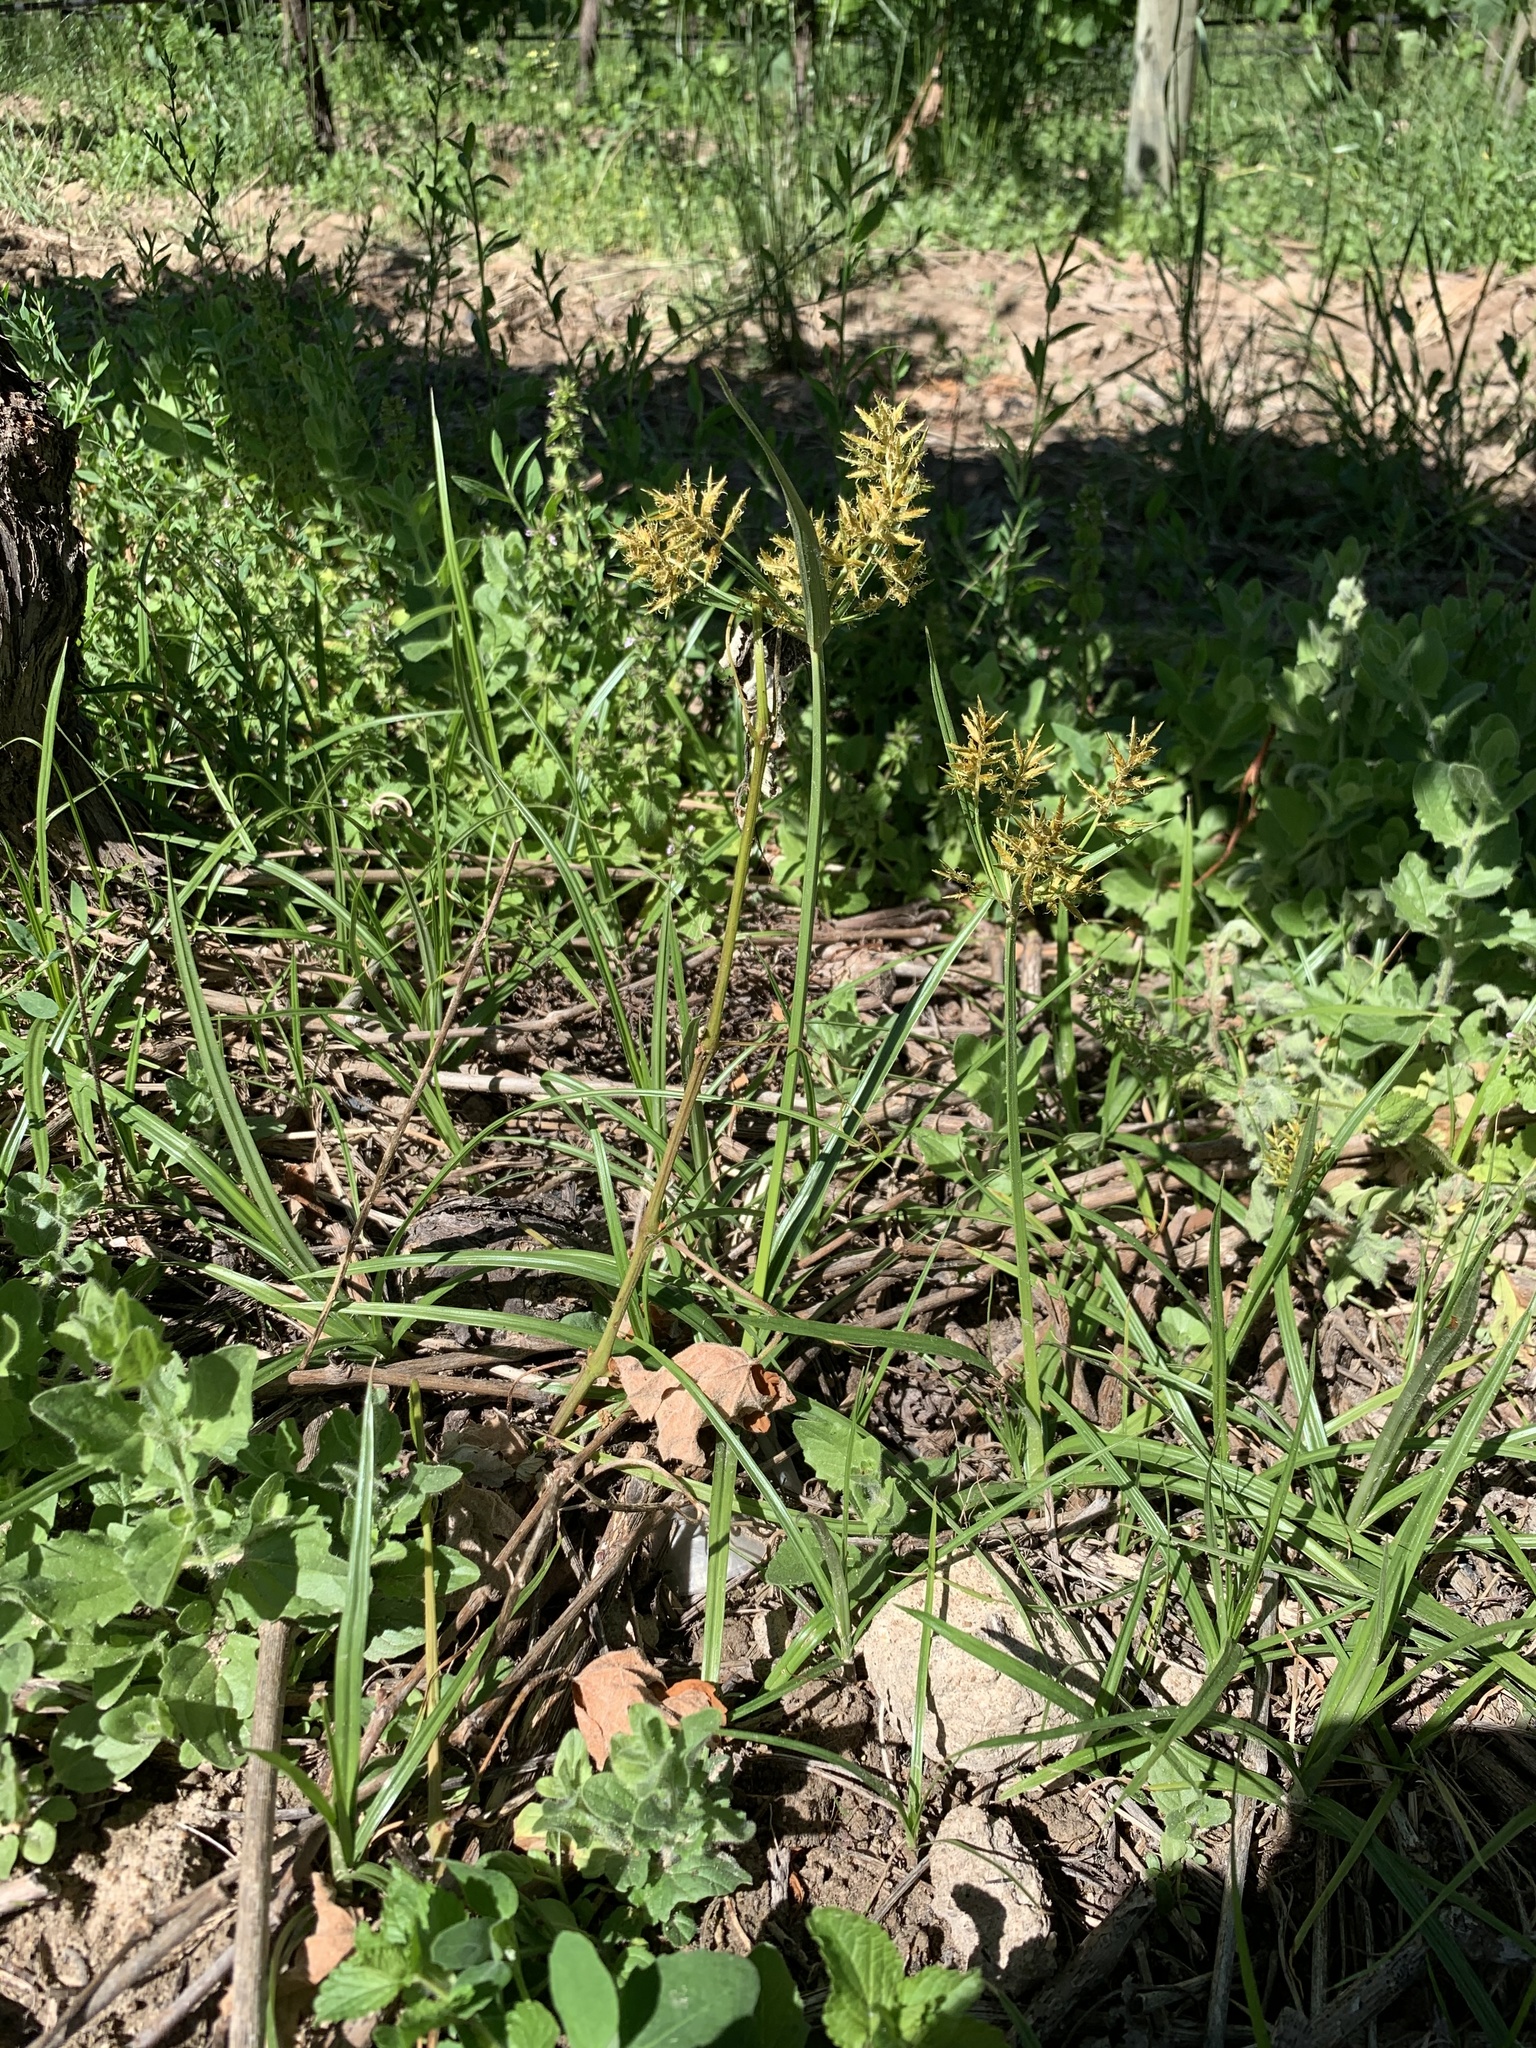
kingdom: Plantae
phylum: Tracheophyta
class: Liliopsida
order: Poales
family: Cyperaceae
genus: Cyperus
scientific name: Cyperus esculentus
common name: Yellow nutsedge
